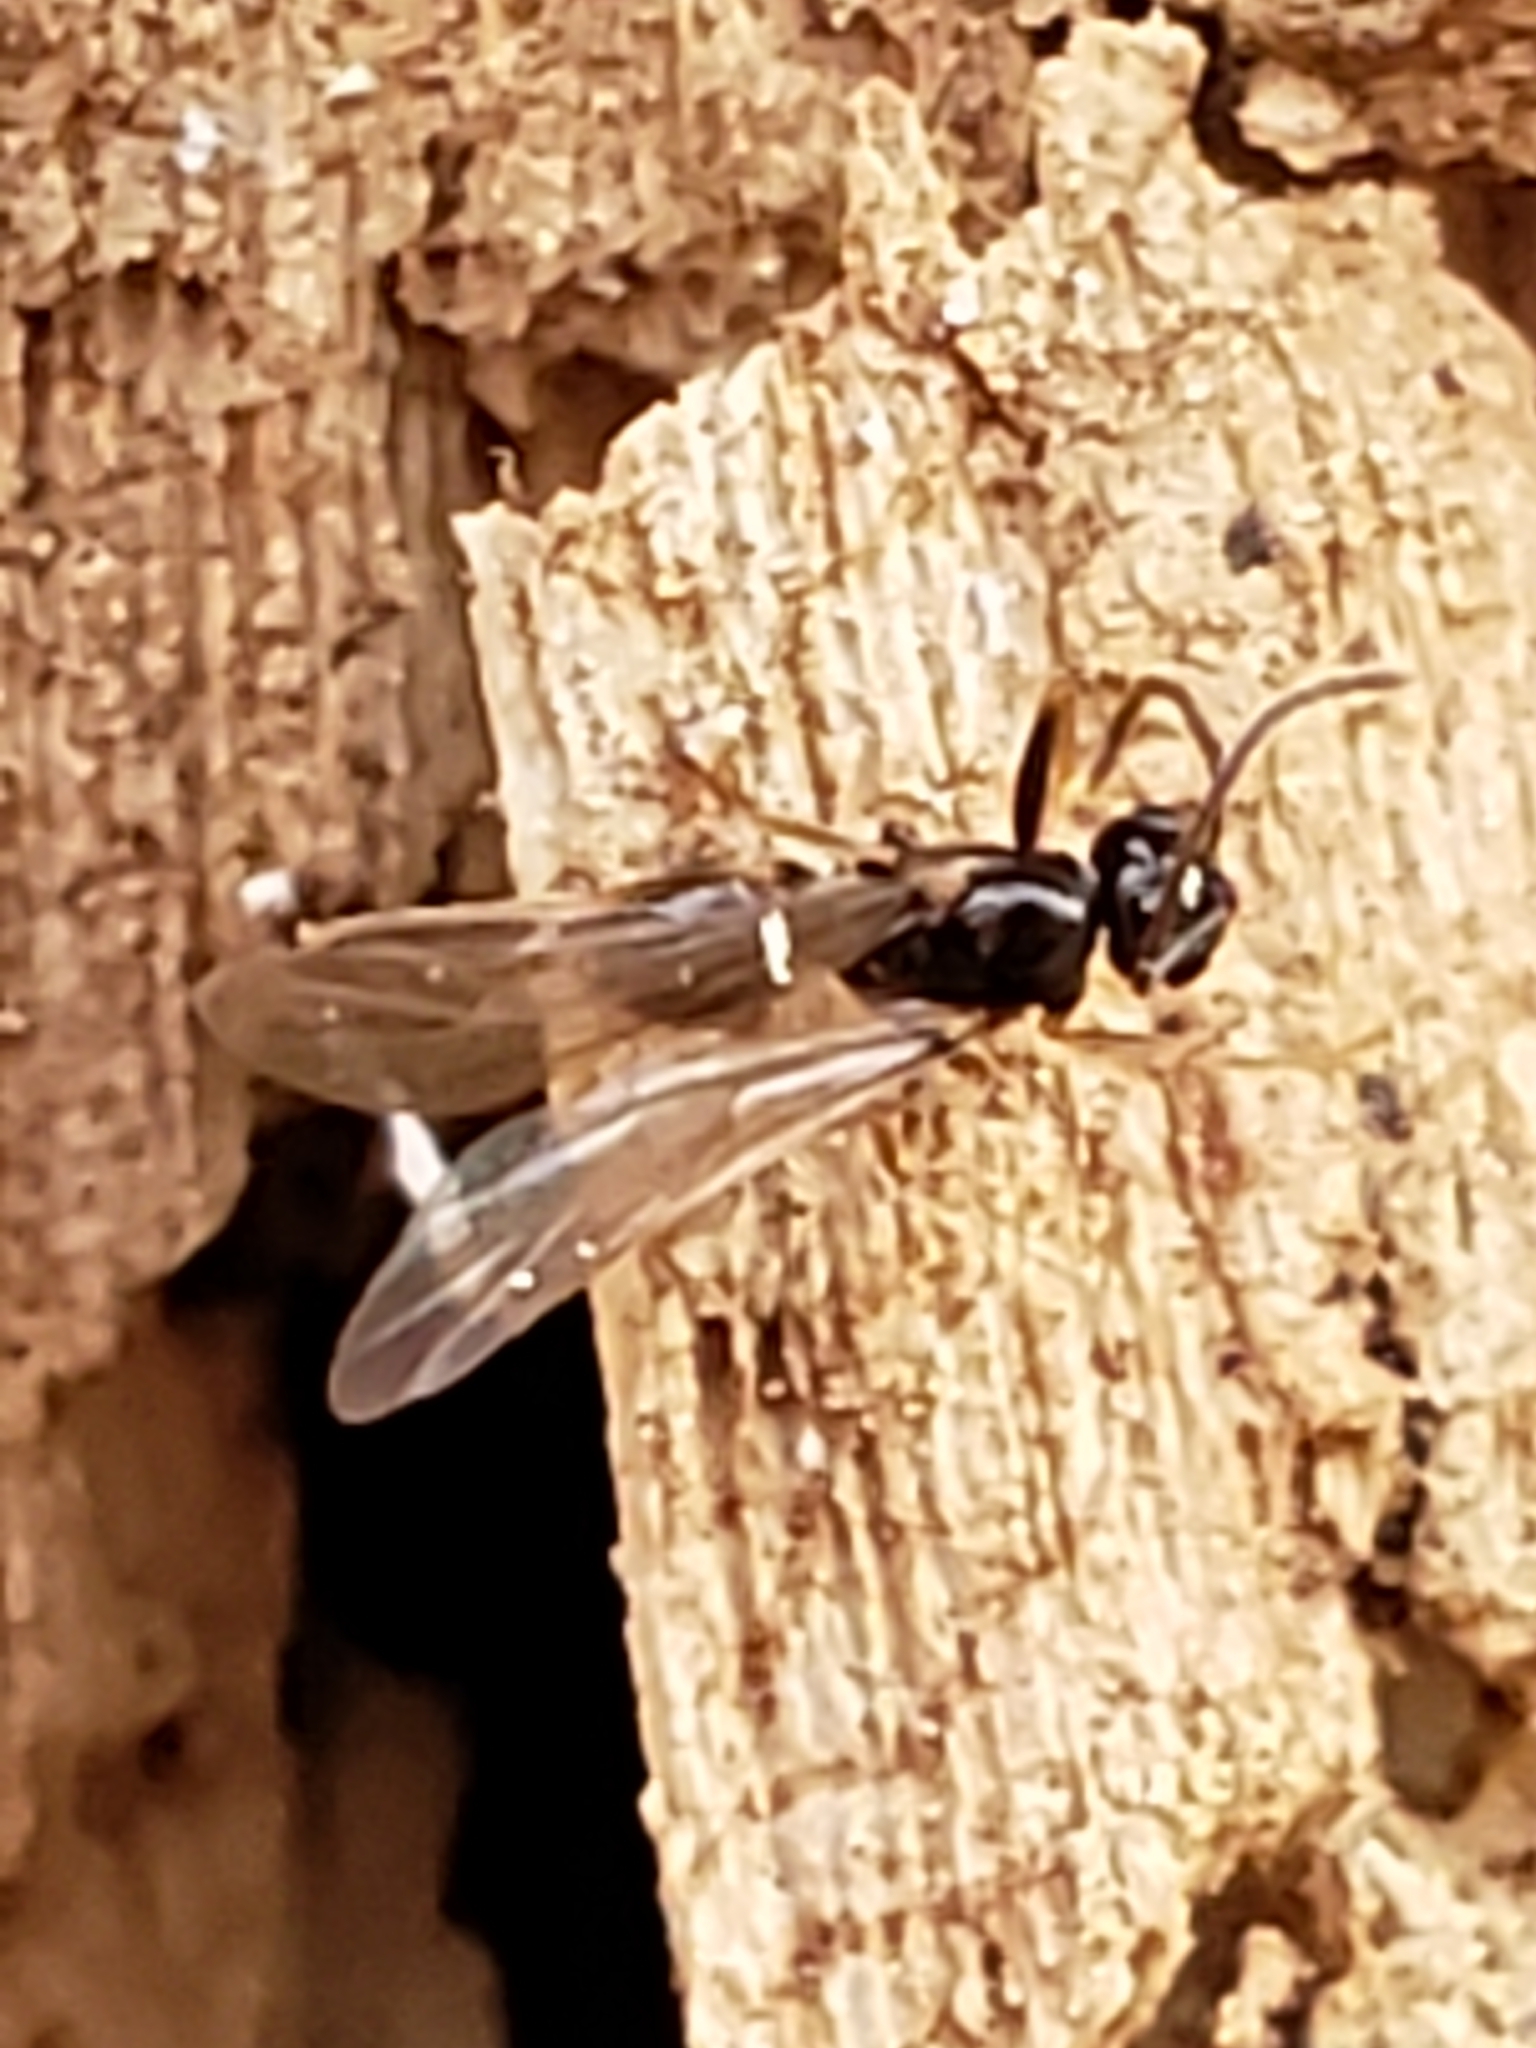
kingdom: Animalia
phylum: Arthropoda
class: Insecta
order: Hymenoptera
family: Formicidae
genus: Prenolepis
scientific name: Prenolepis imparis
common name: Small honey ant
